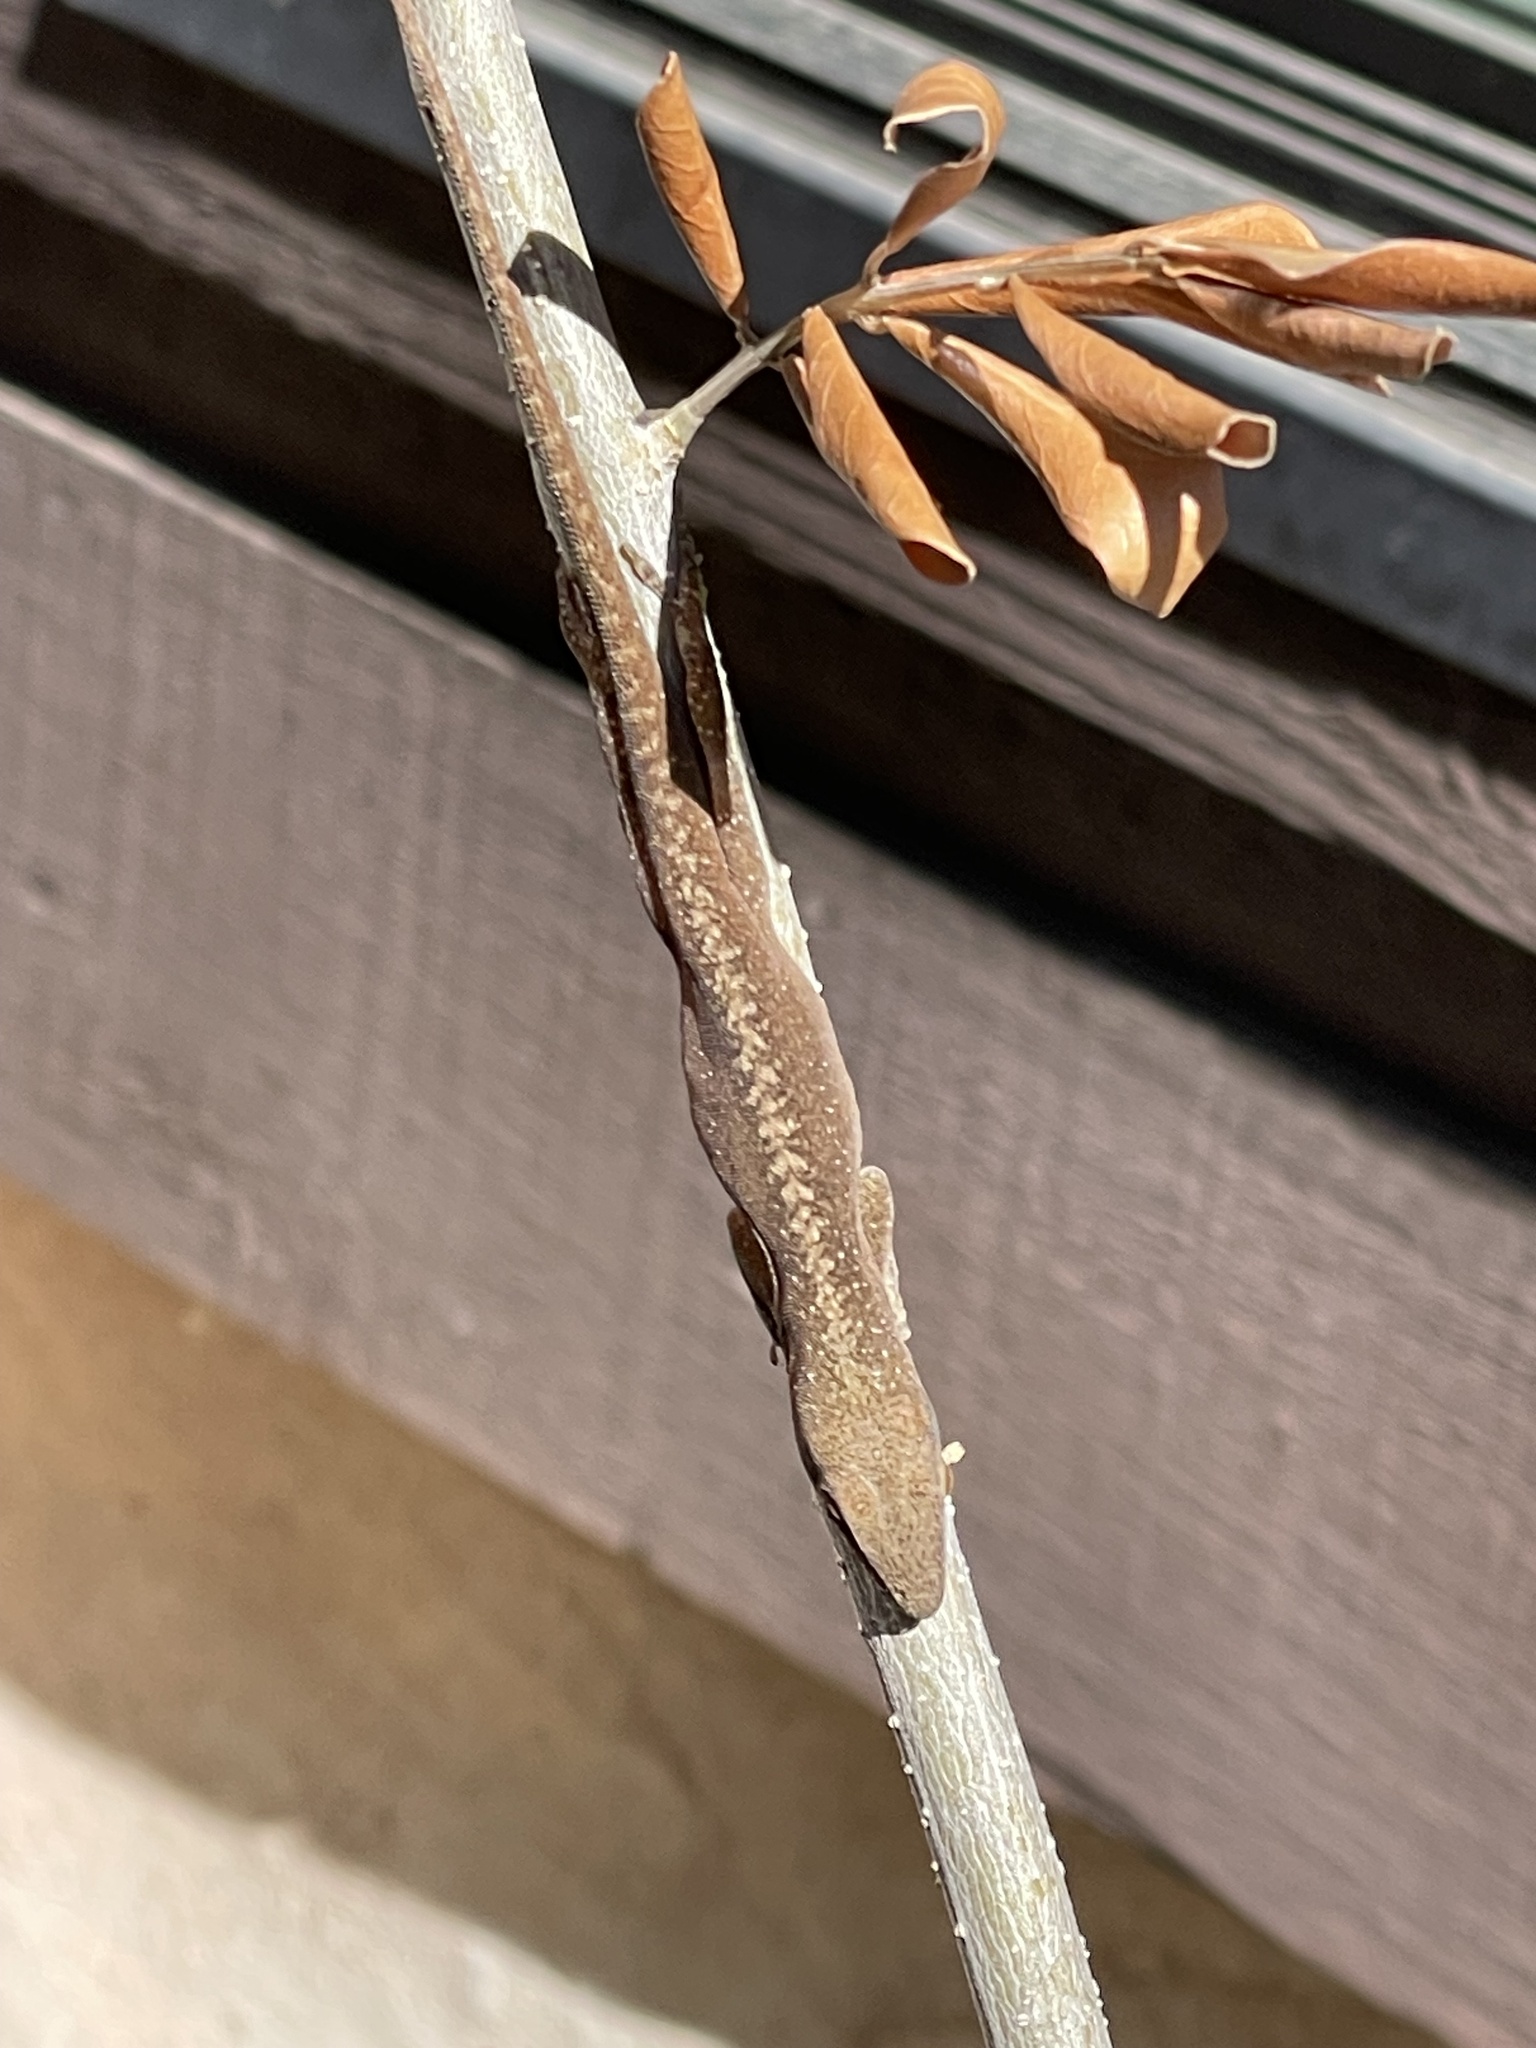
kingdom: Animalia
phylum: Chordata
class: Squamata
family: Dactyloidae
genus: Anolis
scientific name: Anolis carolinensis
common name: Green anole
